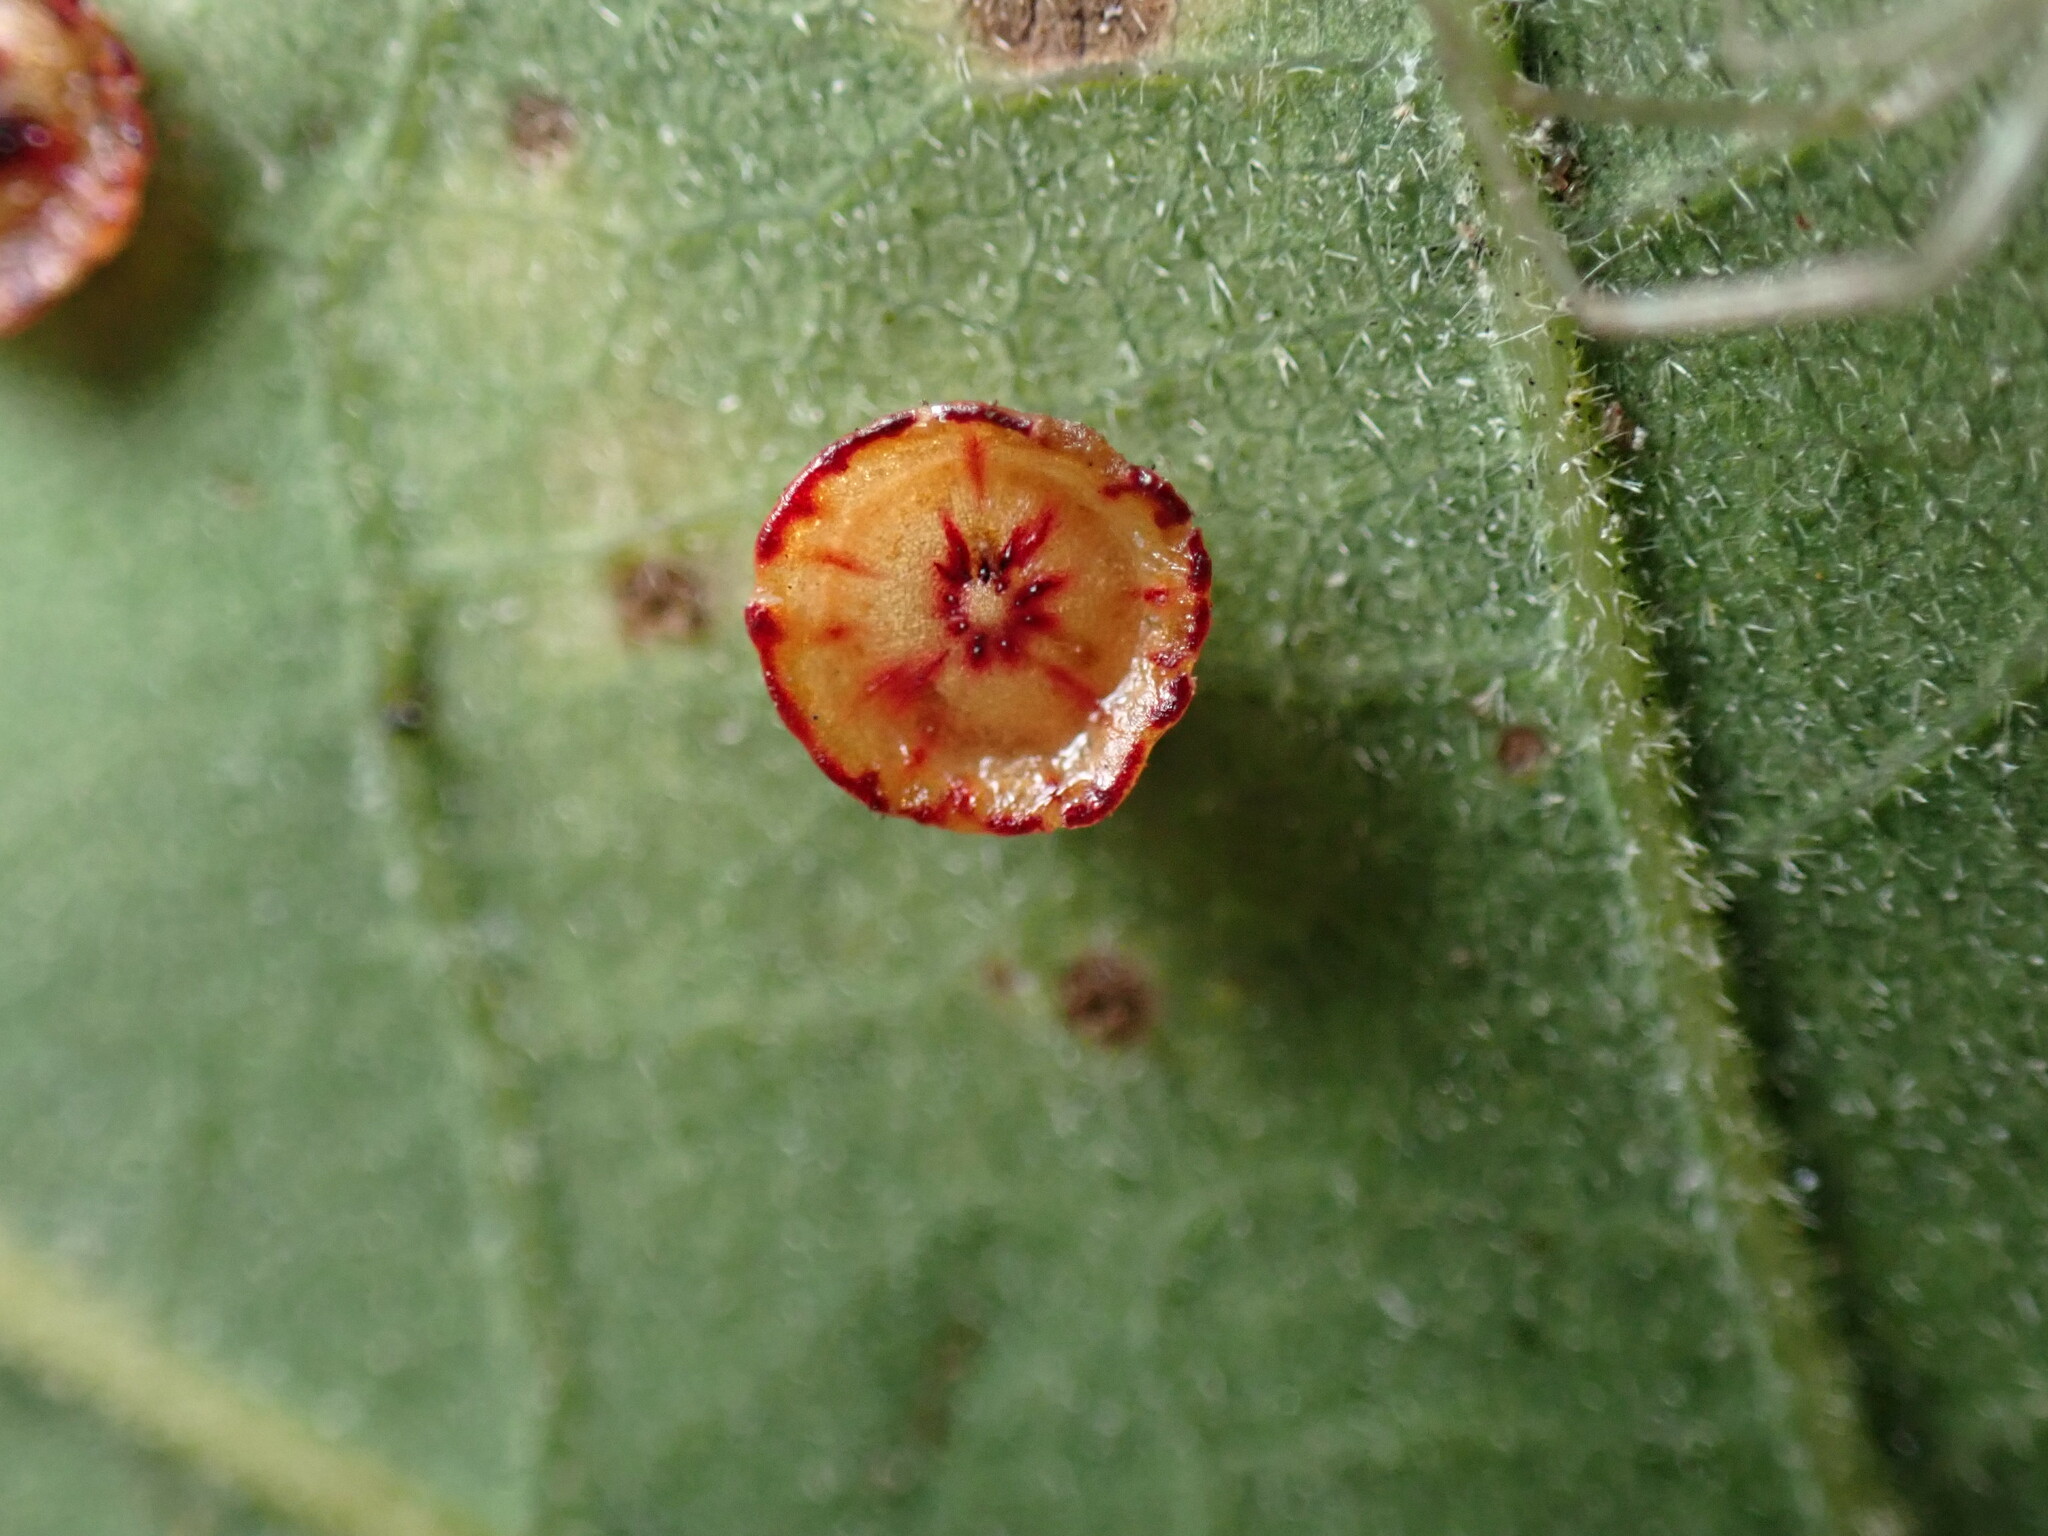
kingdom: Animalia
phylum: Arthropoda
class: Insecta
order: Hymenoptera
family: Cynipidae
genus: Andricus
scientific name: Andricus
